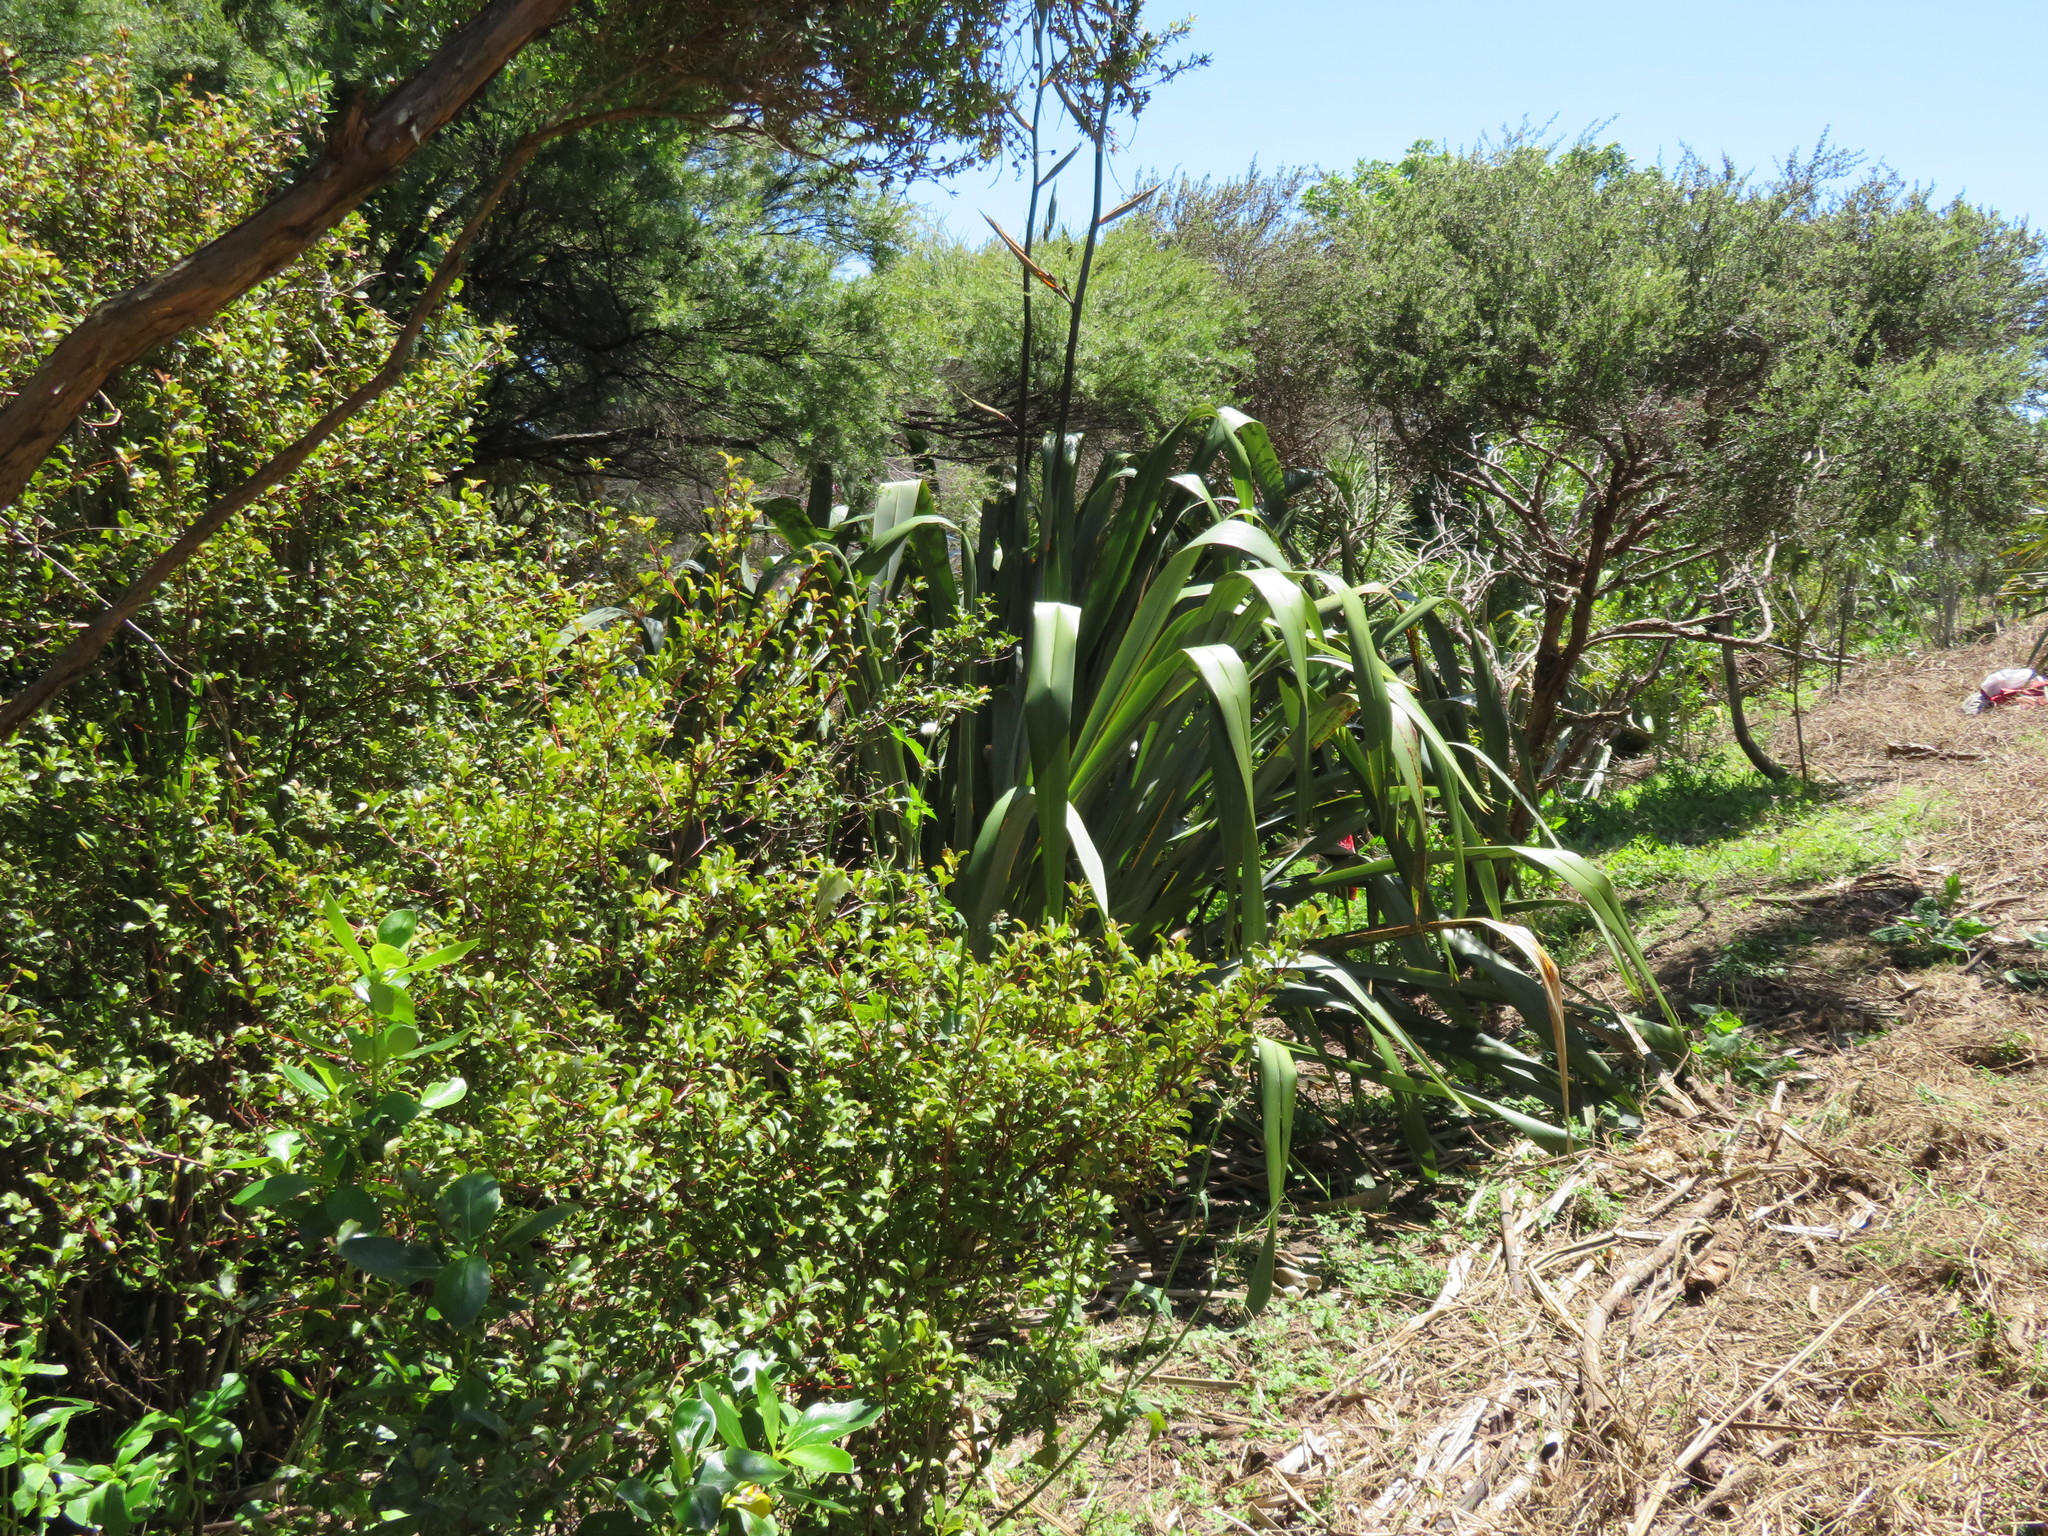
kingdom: Plantae
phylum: Tracheophyta
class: Magnoliopsida
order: Ericales
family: Primulaceae
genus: Myrsine
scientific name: Myrsine australis
